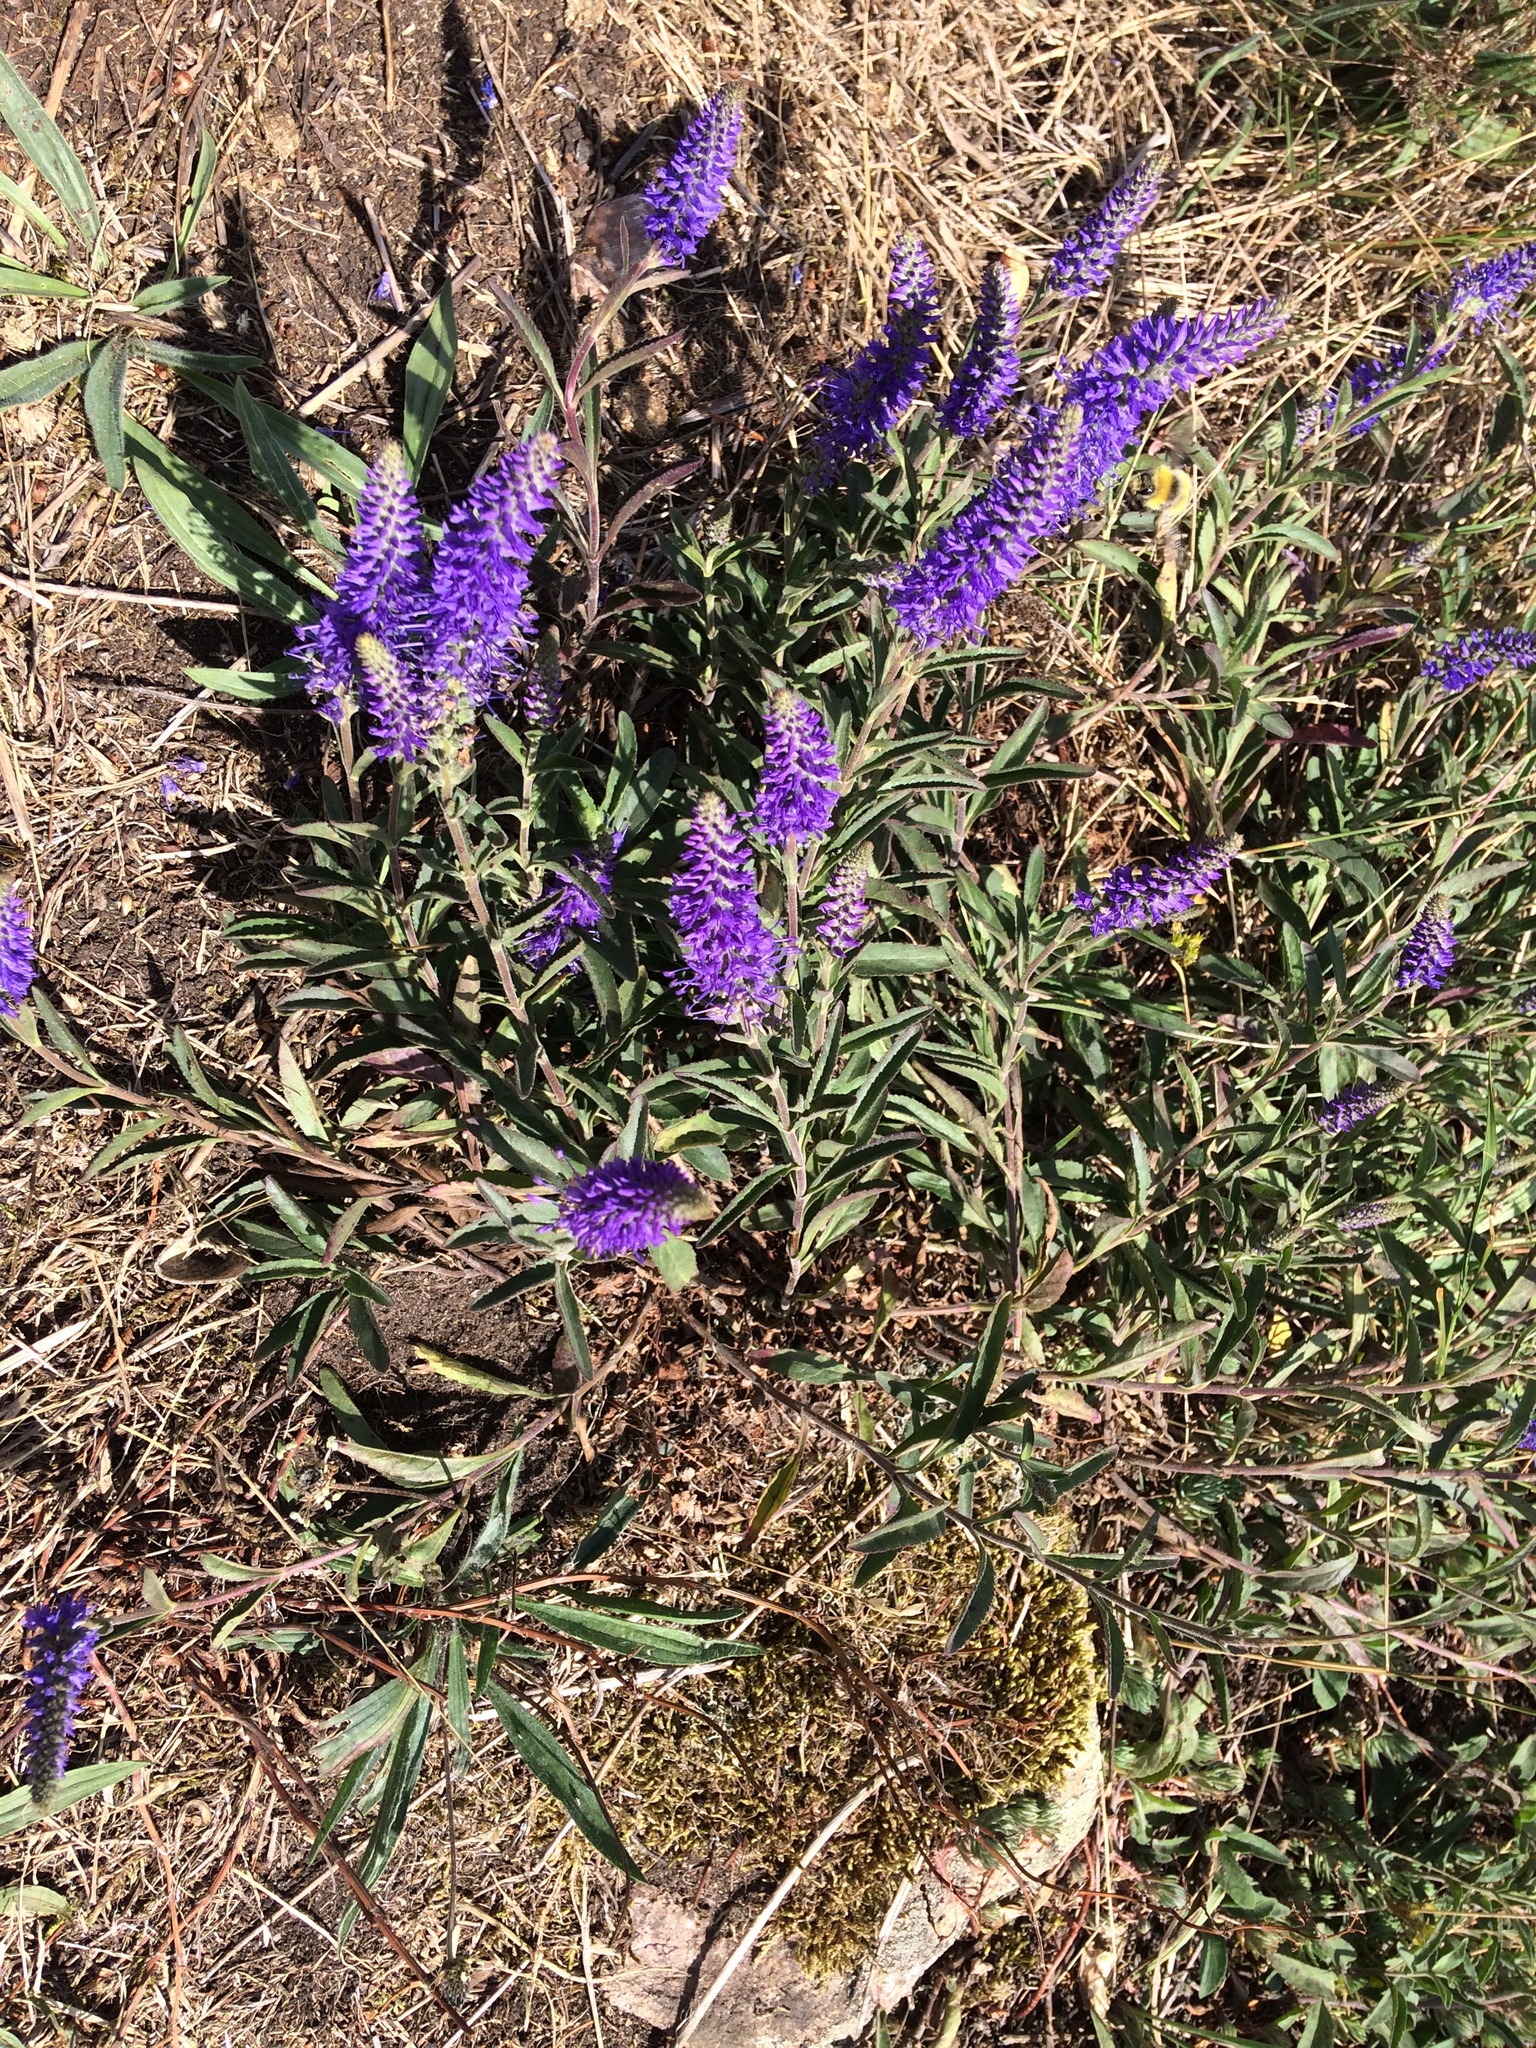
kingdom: Plantae
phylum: Tracheophyta
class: Magnoliopsida
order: Lamiales
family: Plantaginaceae
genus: Veronica
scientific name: Veronica spicata
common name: Spiked speedwell
